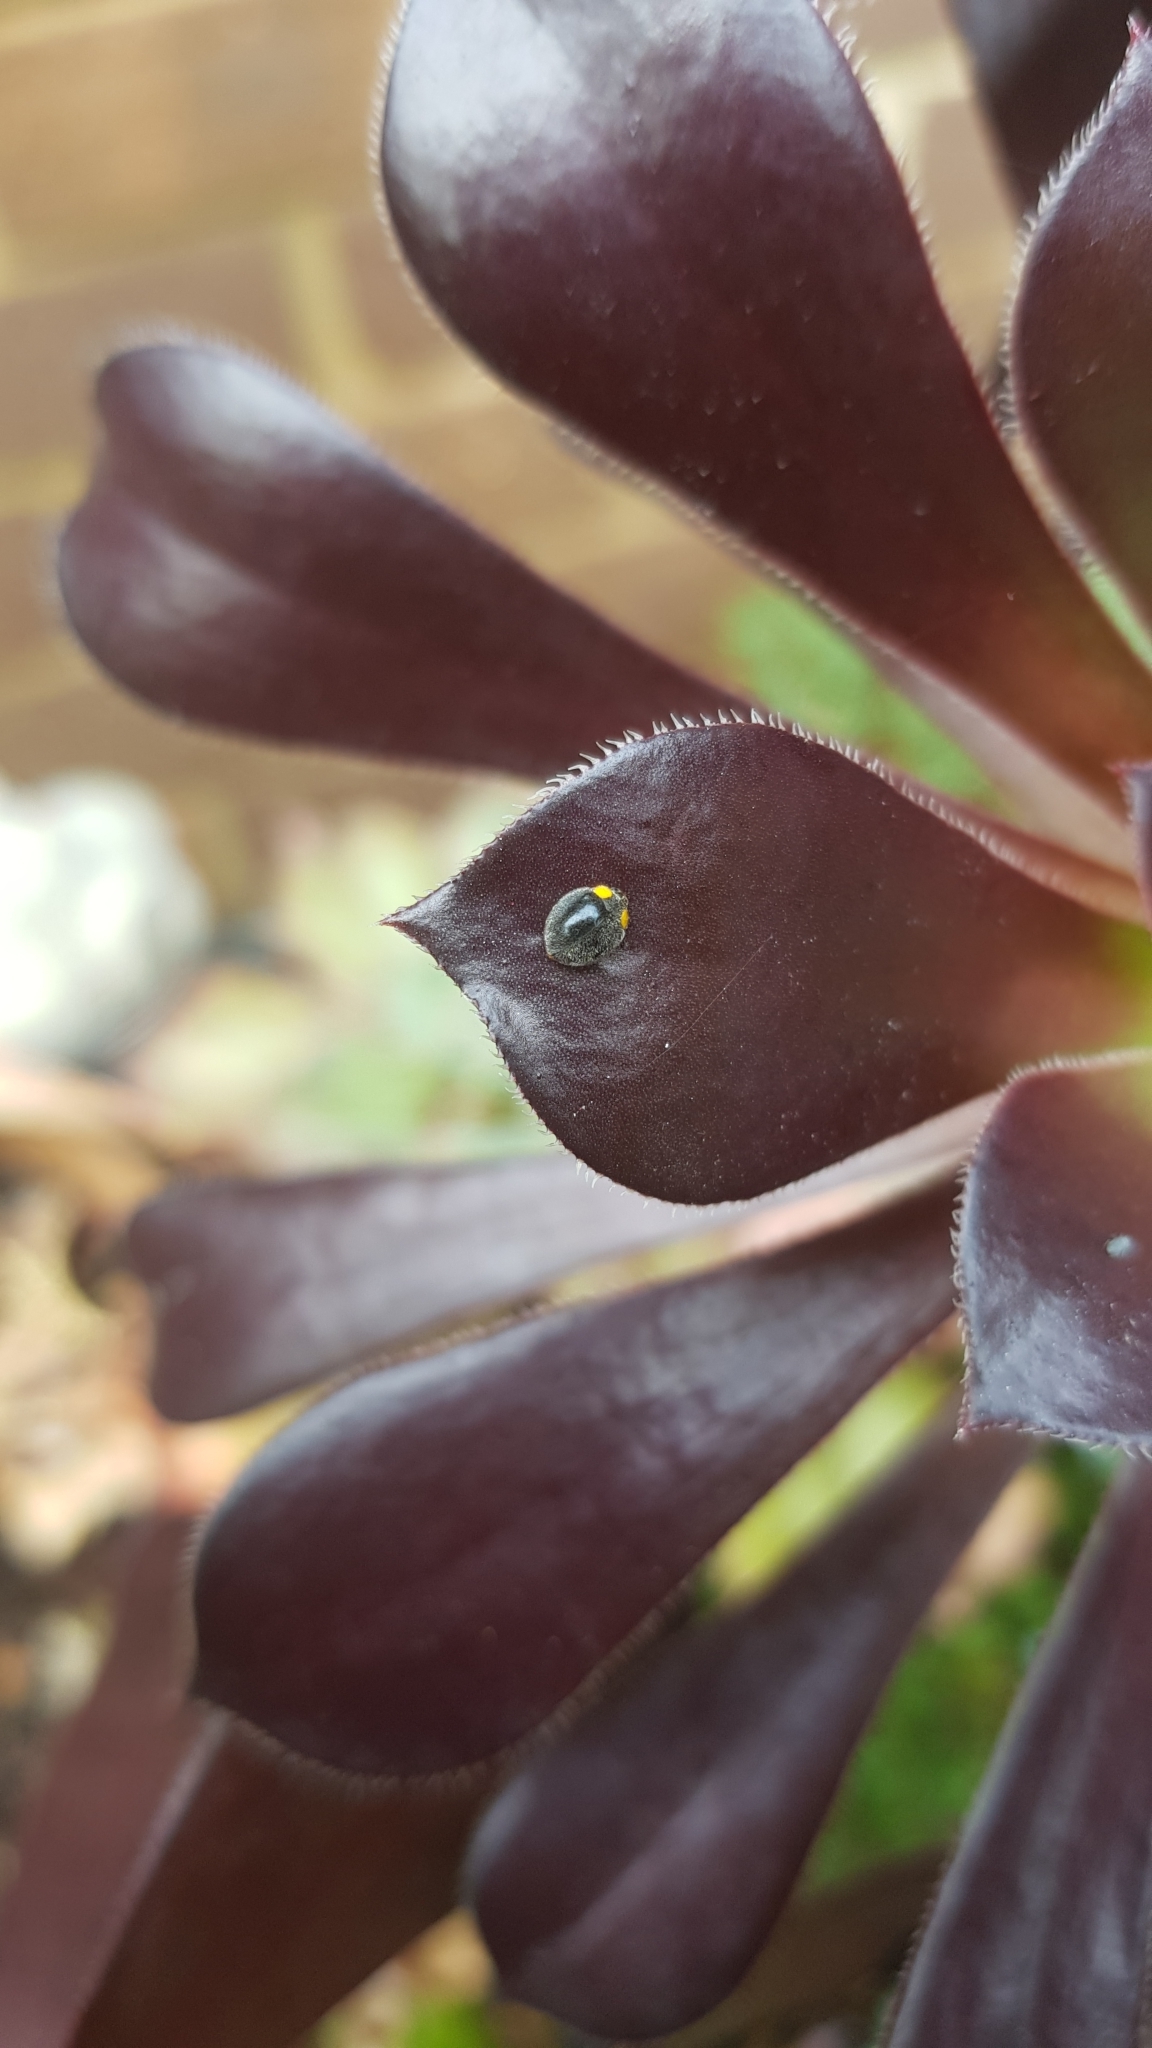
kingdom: Animalia
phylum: Arthropoda
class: Insecta
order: Coleoptera
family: Coccinellidae
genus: Scymnodes
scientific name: Scymnodes lividigaster
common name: Yellowshouldered lady beetle
